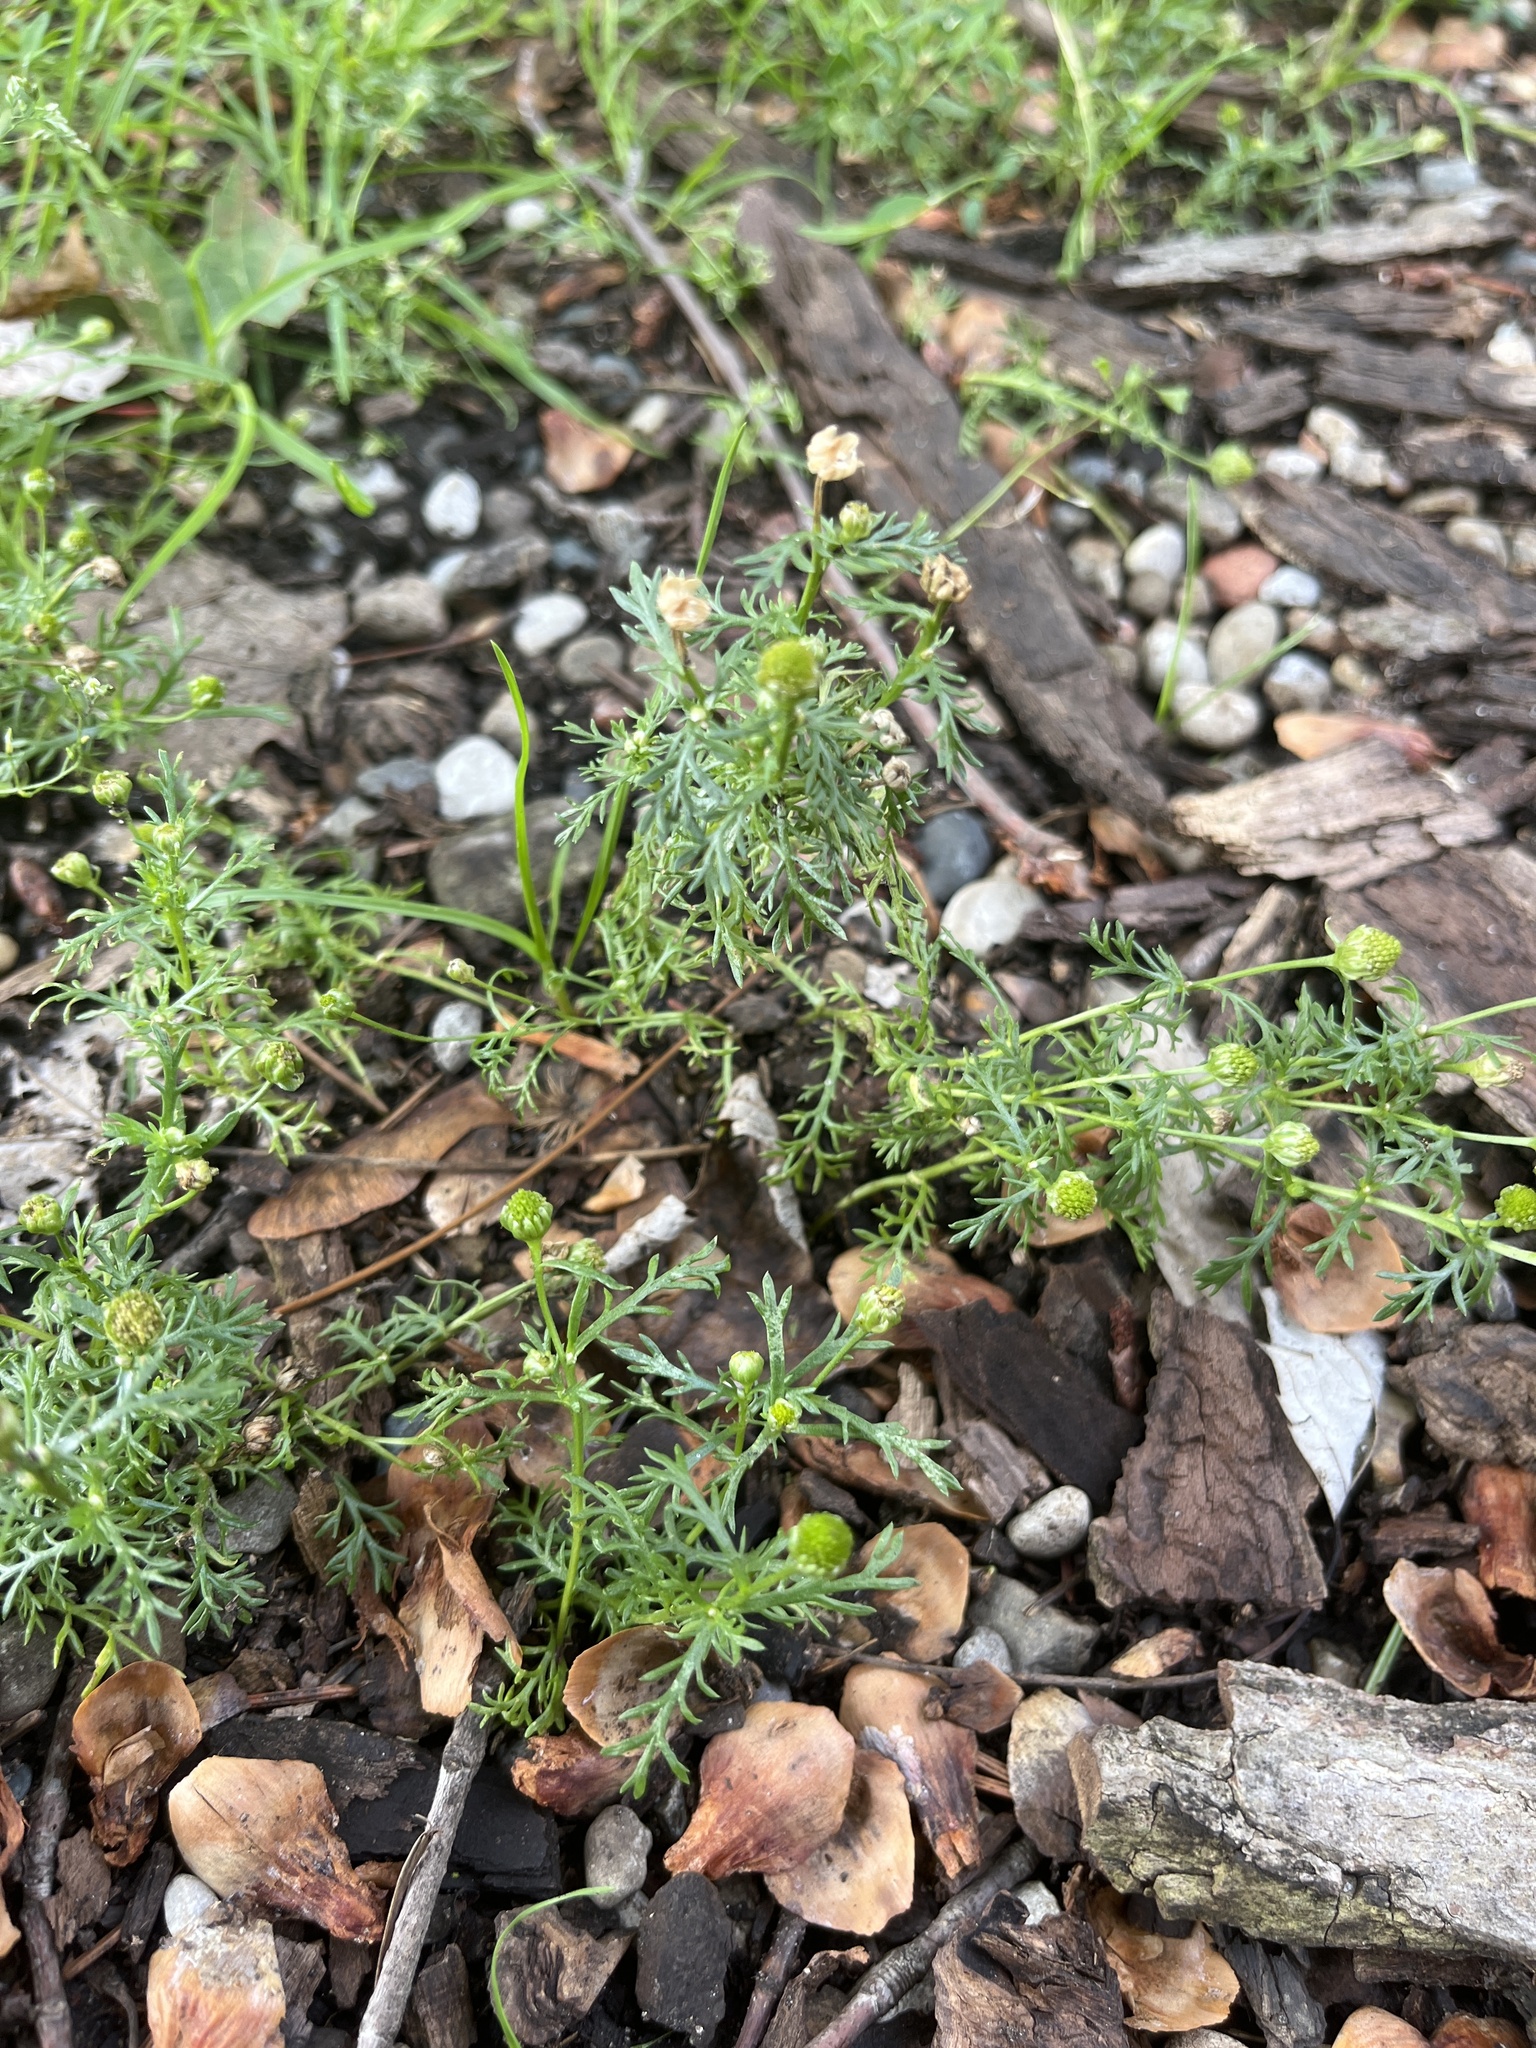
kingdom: Plantae
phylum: Tracheophyta
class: Magnoliopsida
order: Asterales
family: Asteraceae
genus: Matricaria
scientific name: Matricaria discoidea
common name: Disc mayweed
